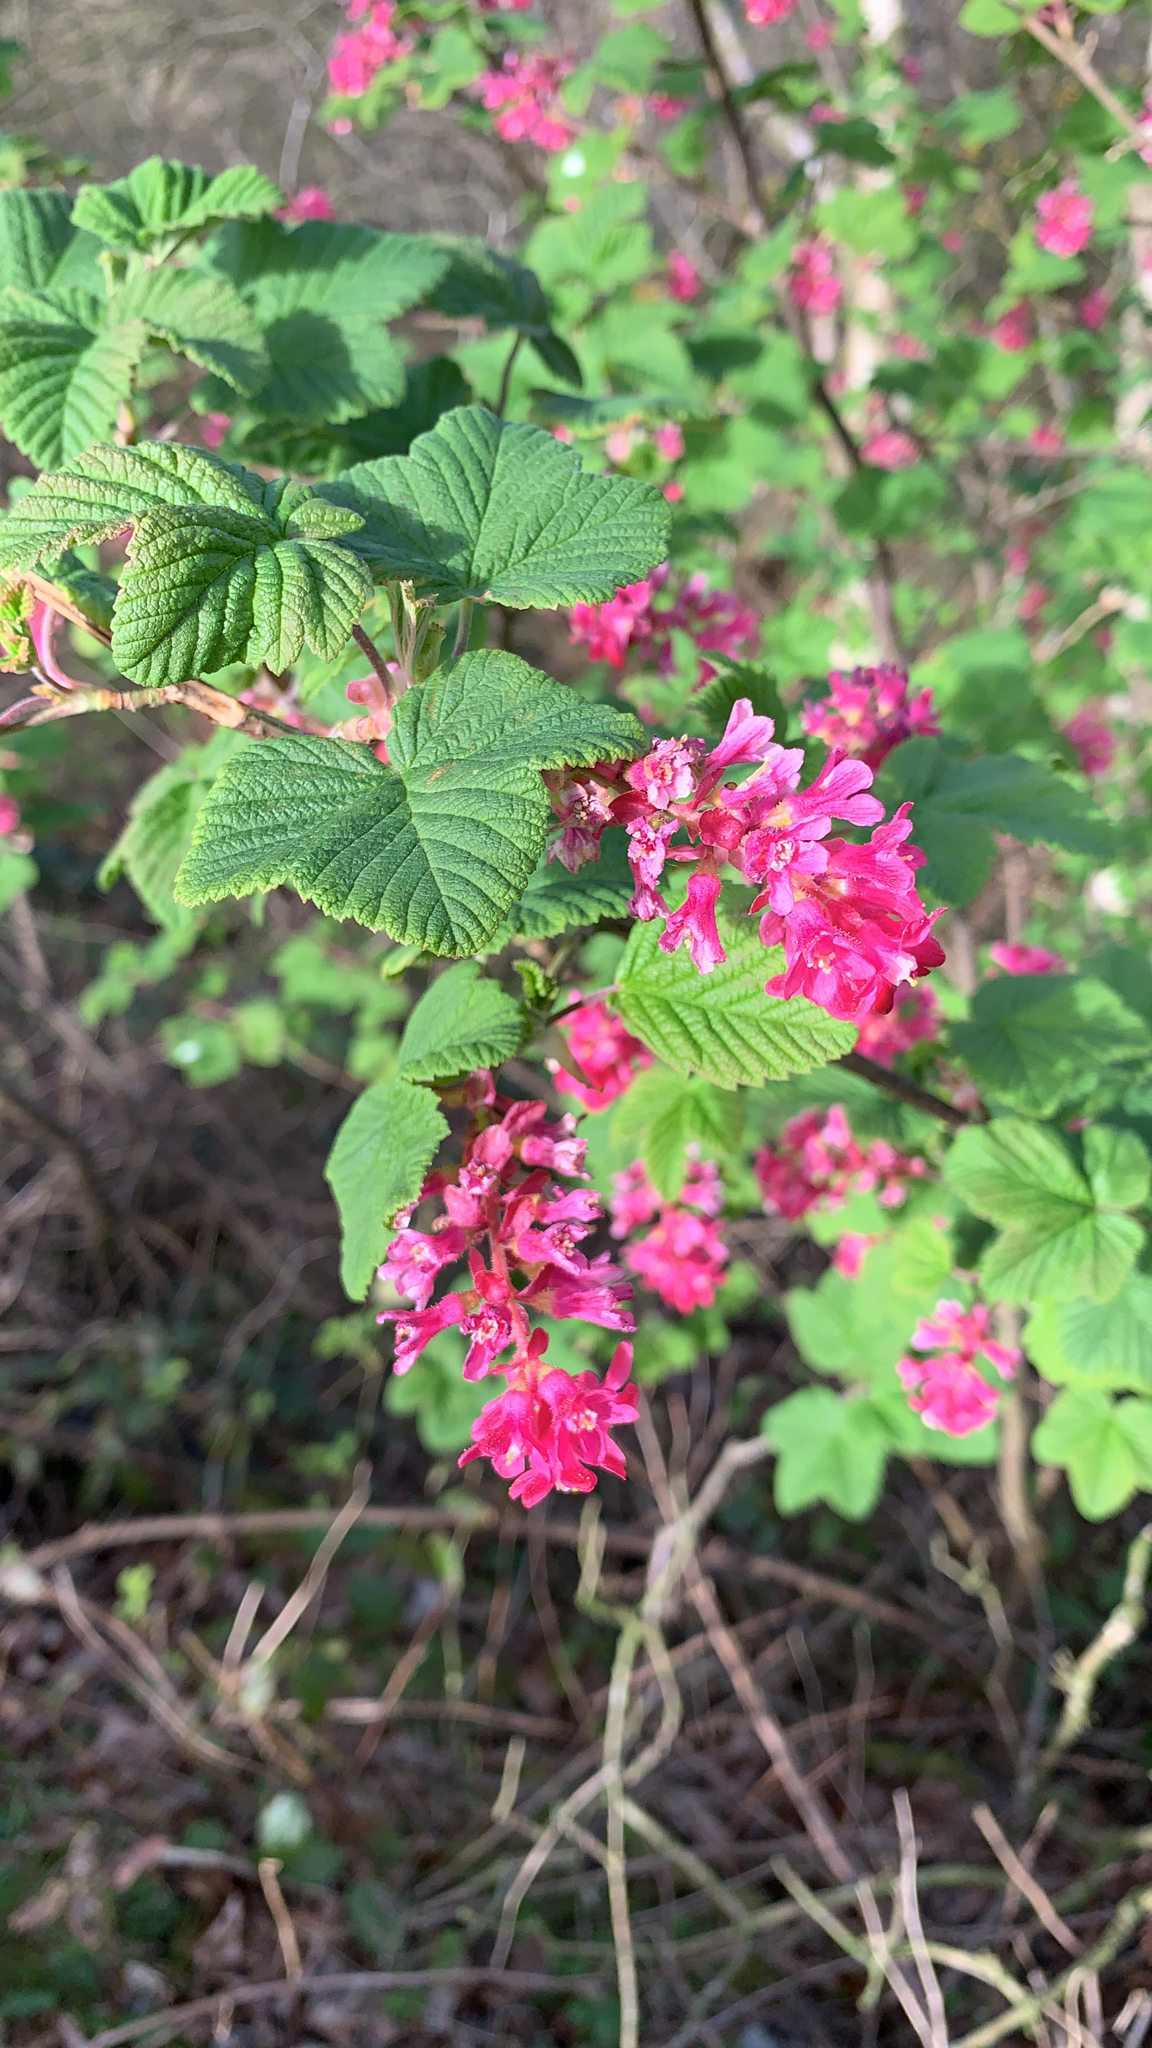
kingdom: Plantae
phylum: Tracheophyta
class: Magnoliopsida
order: Saxifragales
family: Grossulariaceae
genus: Ribes
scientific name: Ribes sanguineum
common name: Flowering currant
